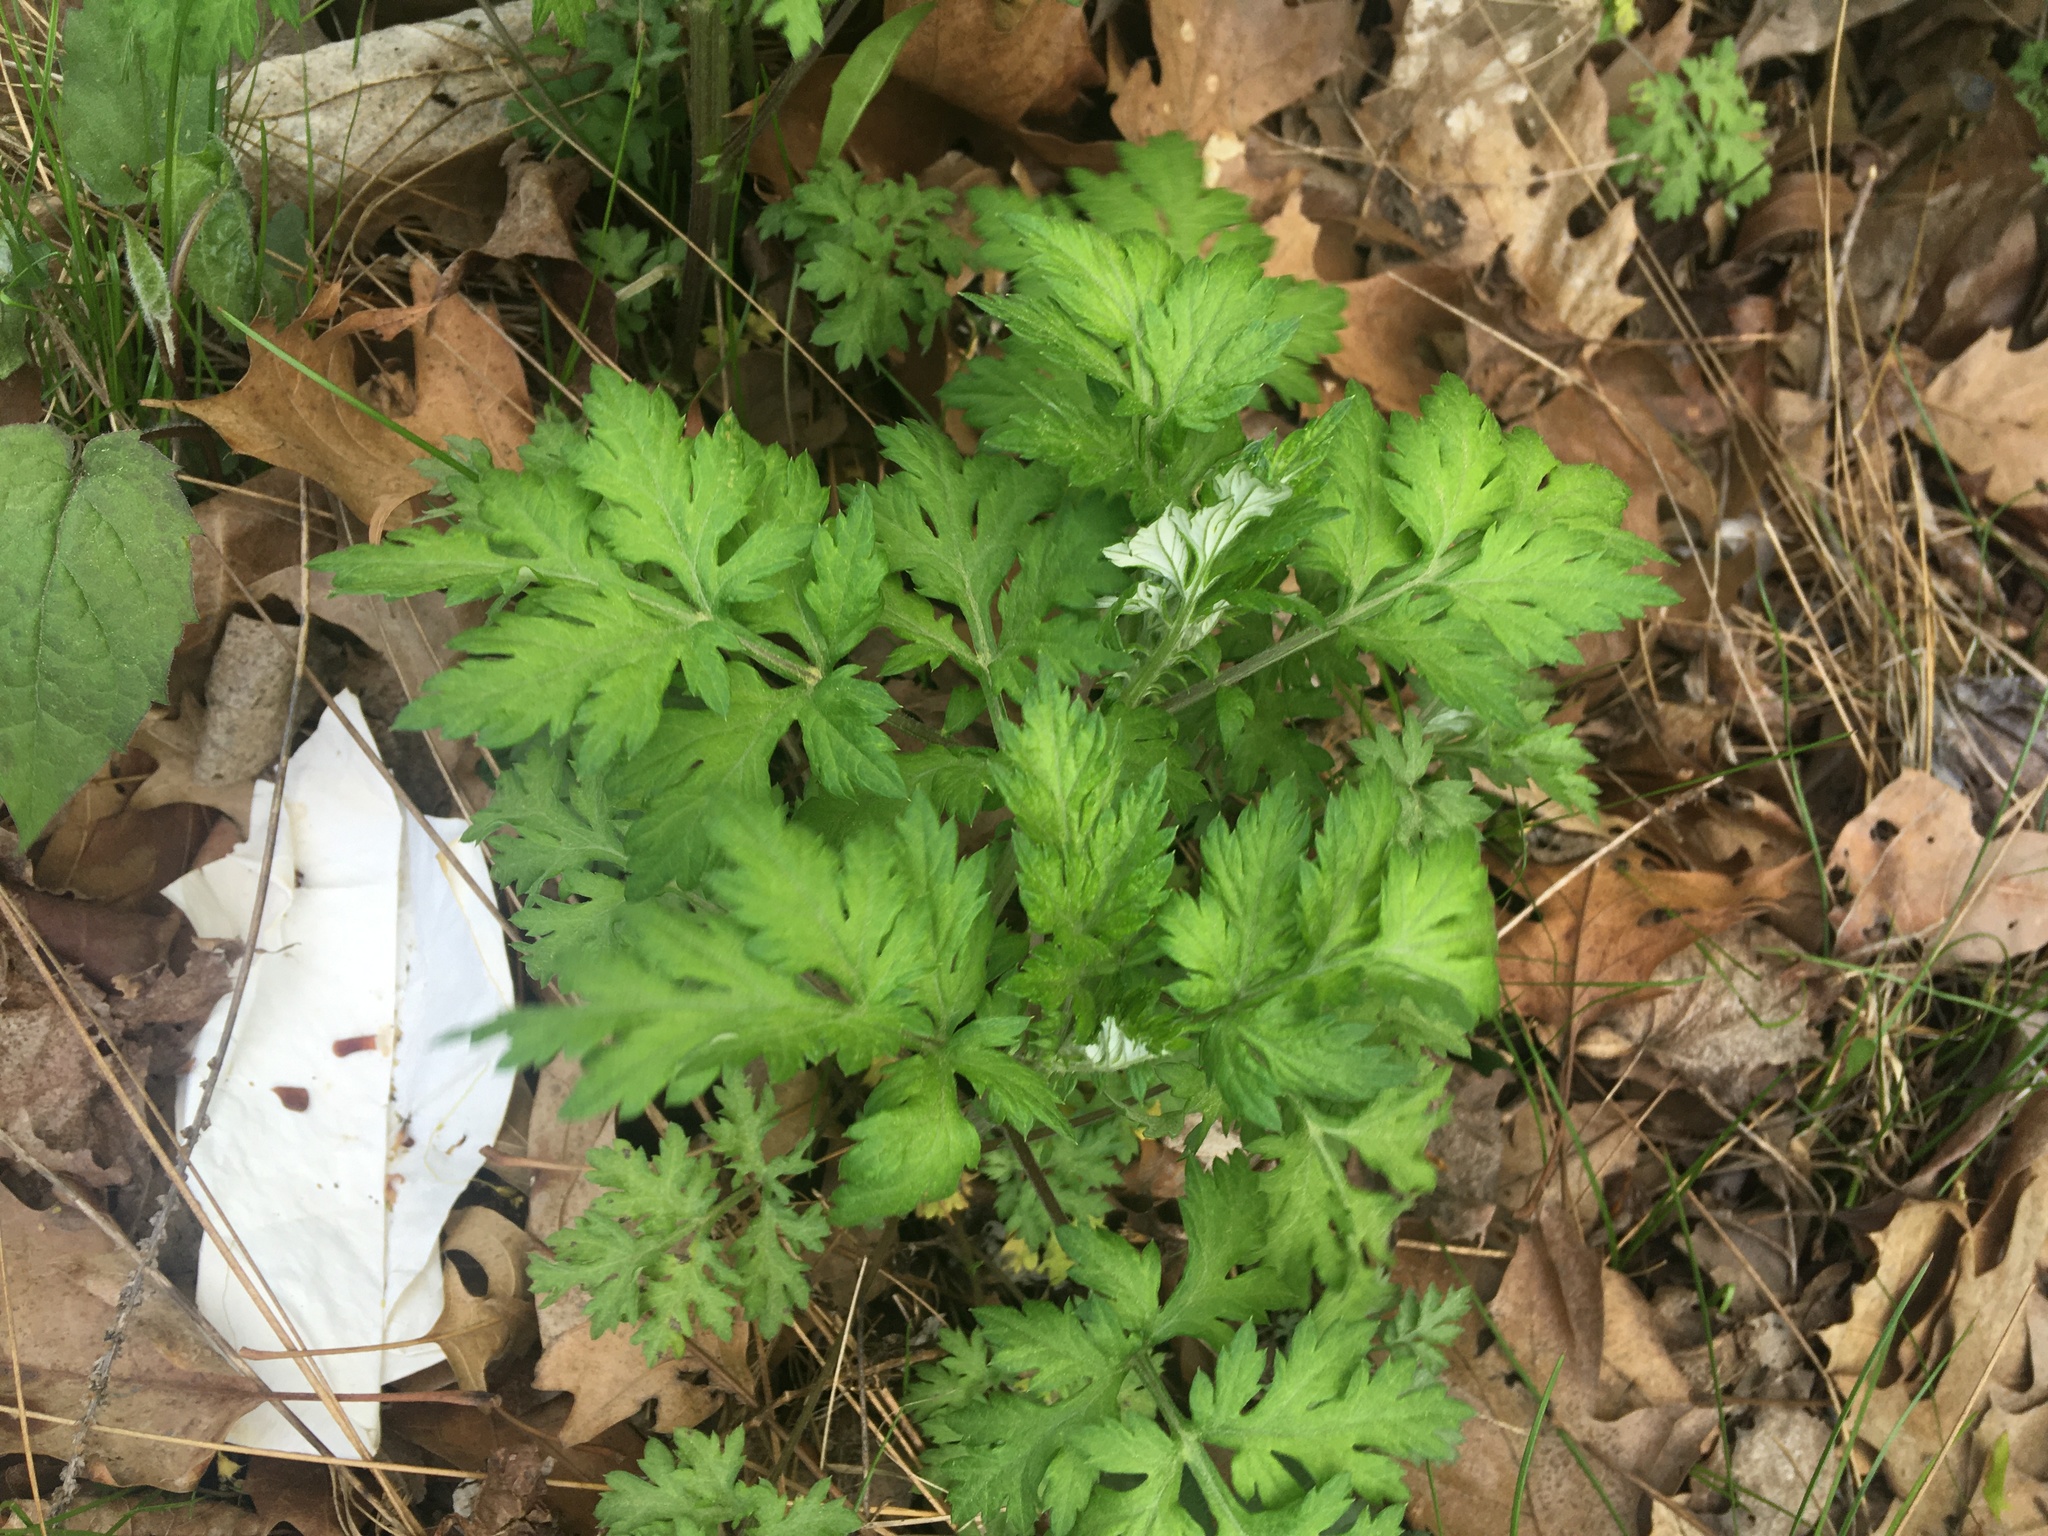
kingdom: Plantae
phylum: Tracheophyta
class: Magnoliopsida
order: Asterales
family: Asteraceae
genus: Artemisia
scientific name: Artemisia vulgaris
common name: Mugwort
